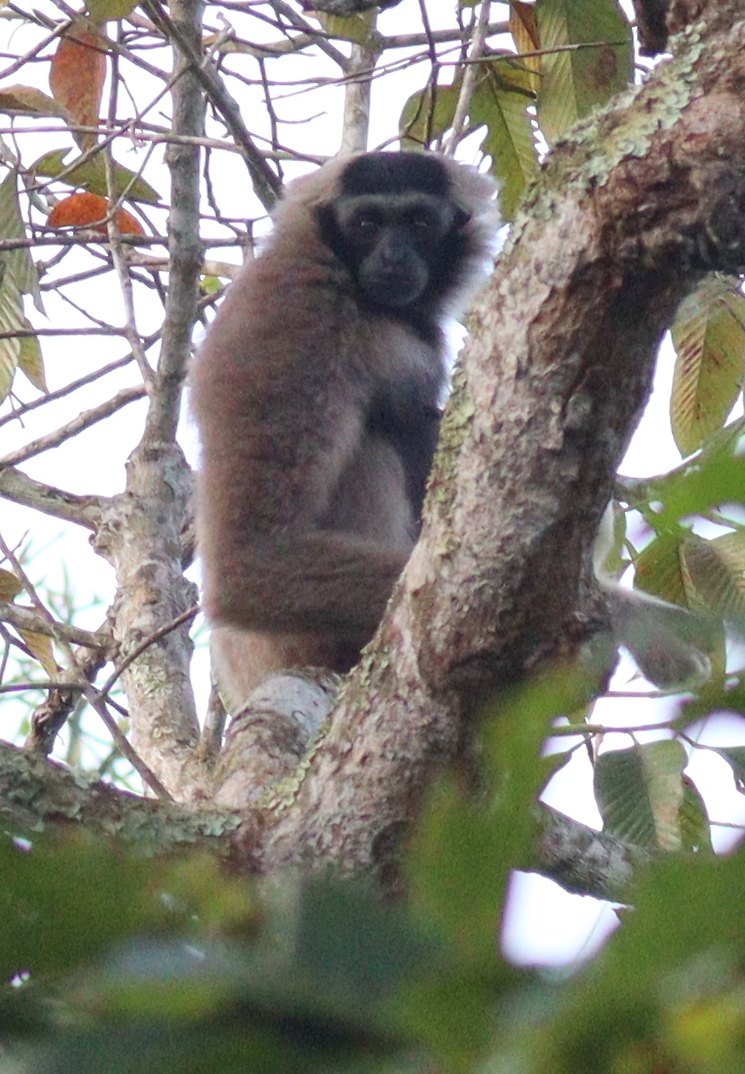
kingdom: Animalia
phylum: Chordata
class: Mammalia
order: Primates
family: Hylobatidae
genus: Hylobates
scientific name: Hylobates pileatus
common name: Pileated gibbon
